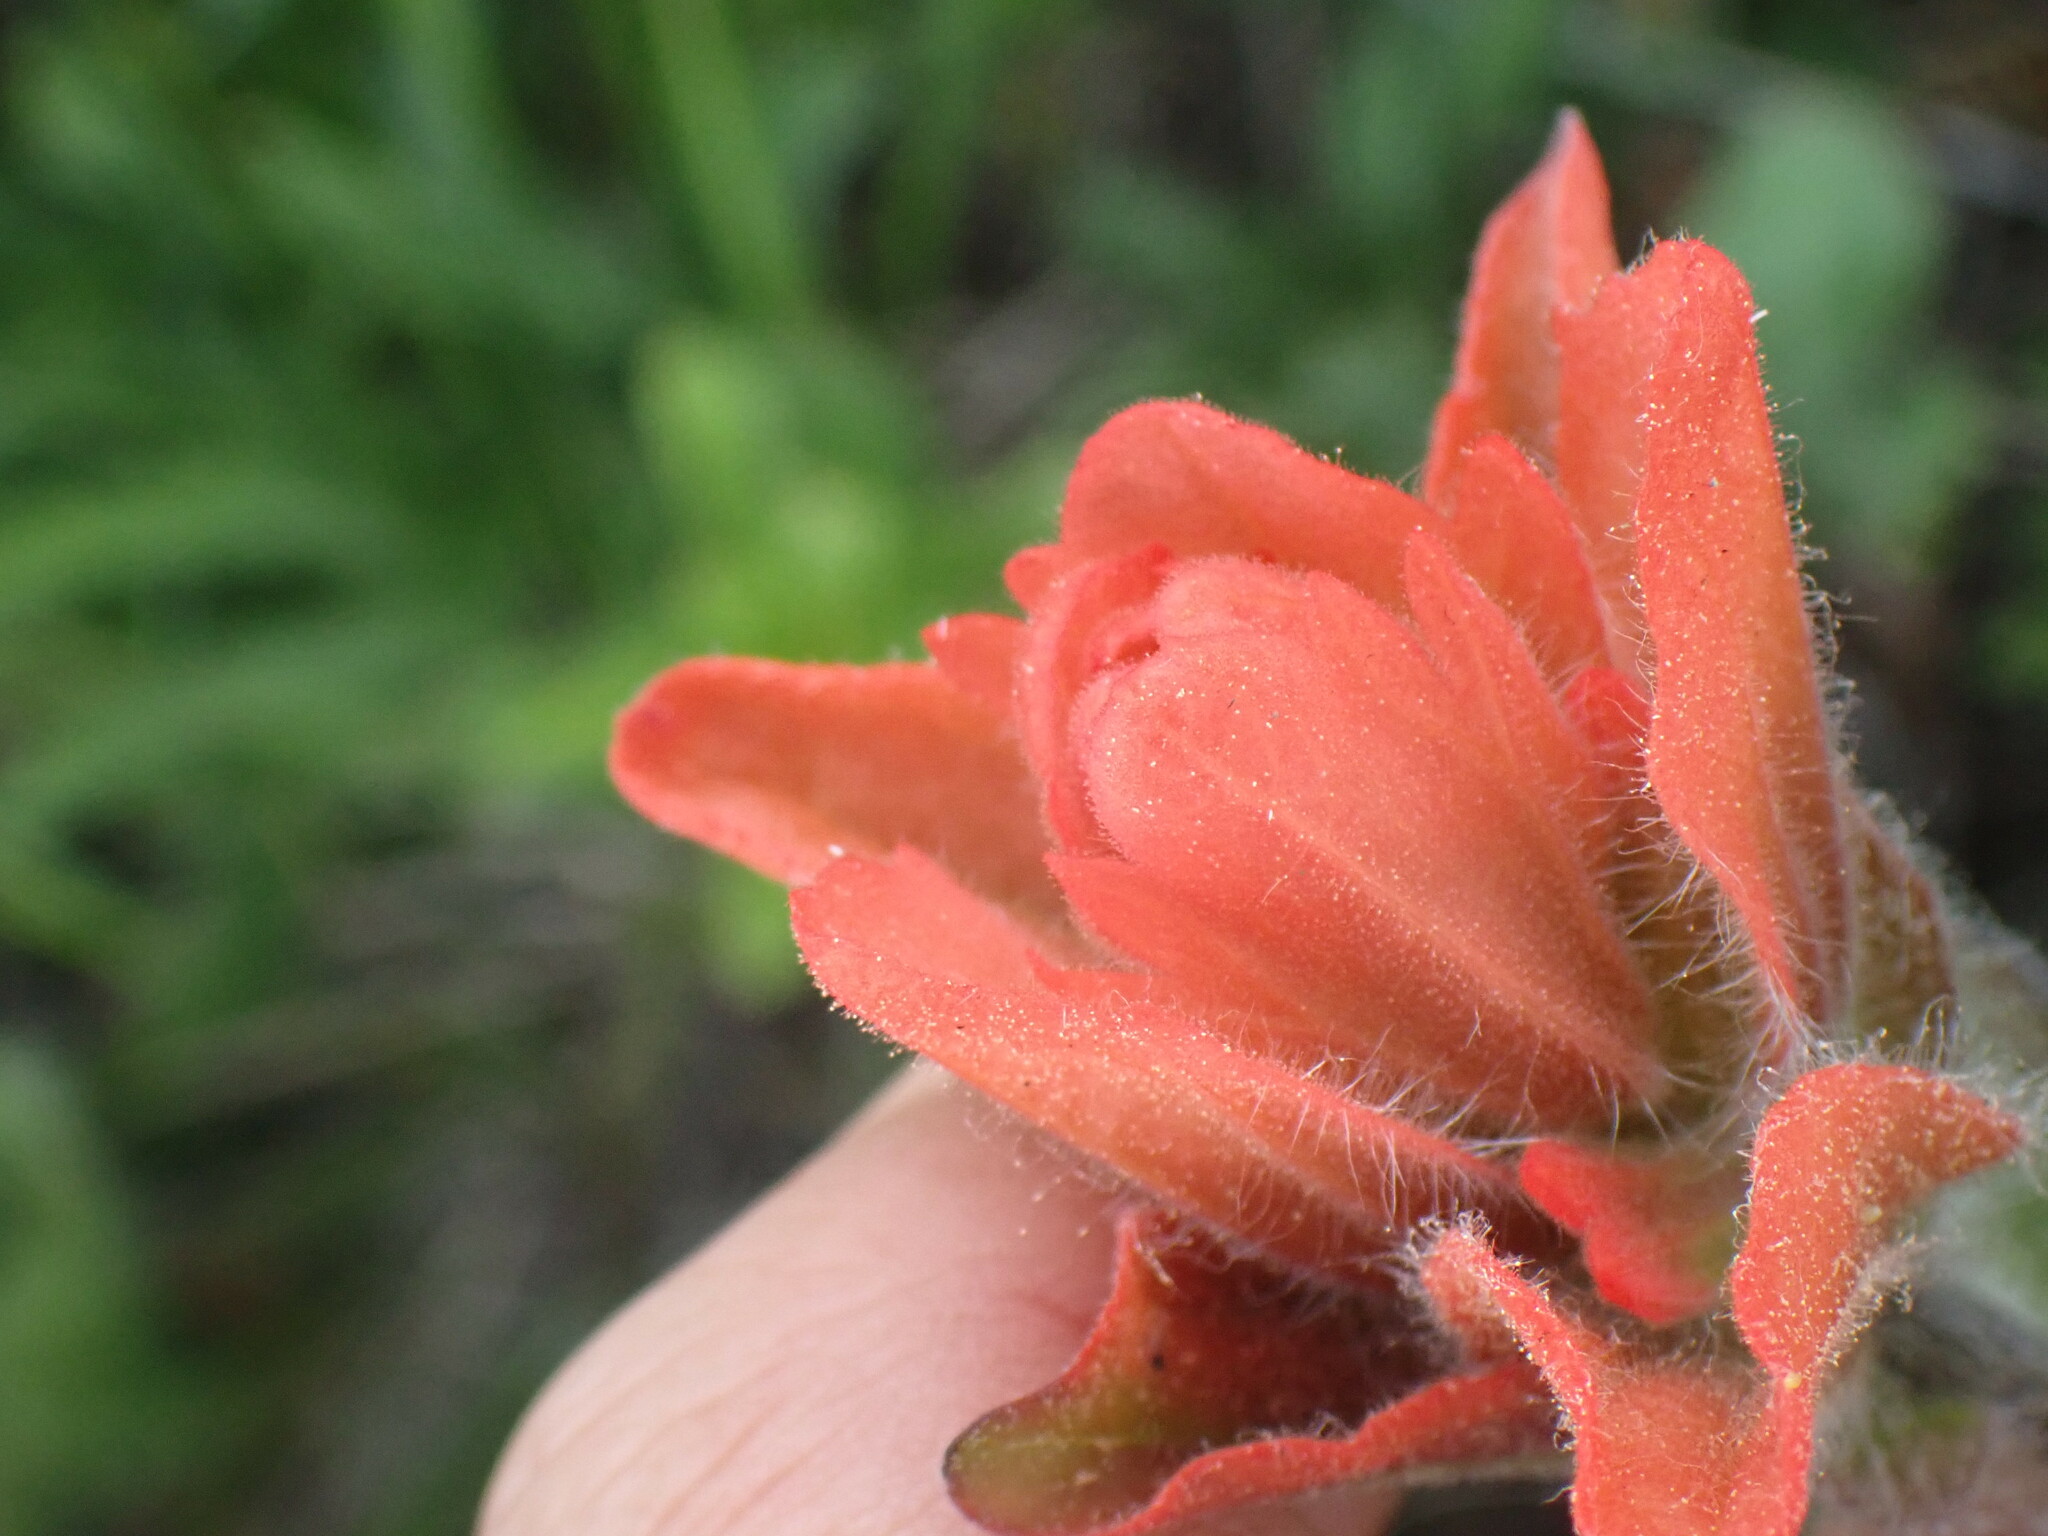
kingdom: Plantae
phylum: Tracheophyta
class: Magnoliopsida
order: Lamiales
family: Orobanchaceae
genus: Castilleja
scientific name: Castilleja miniata
